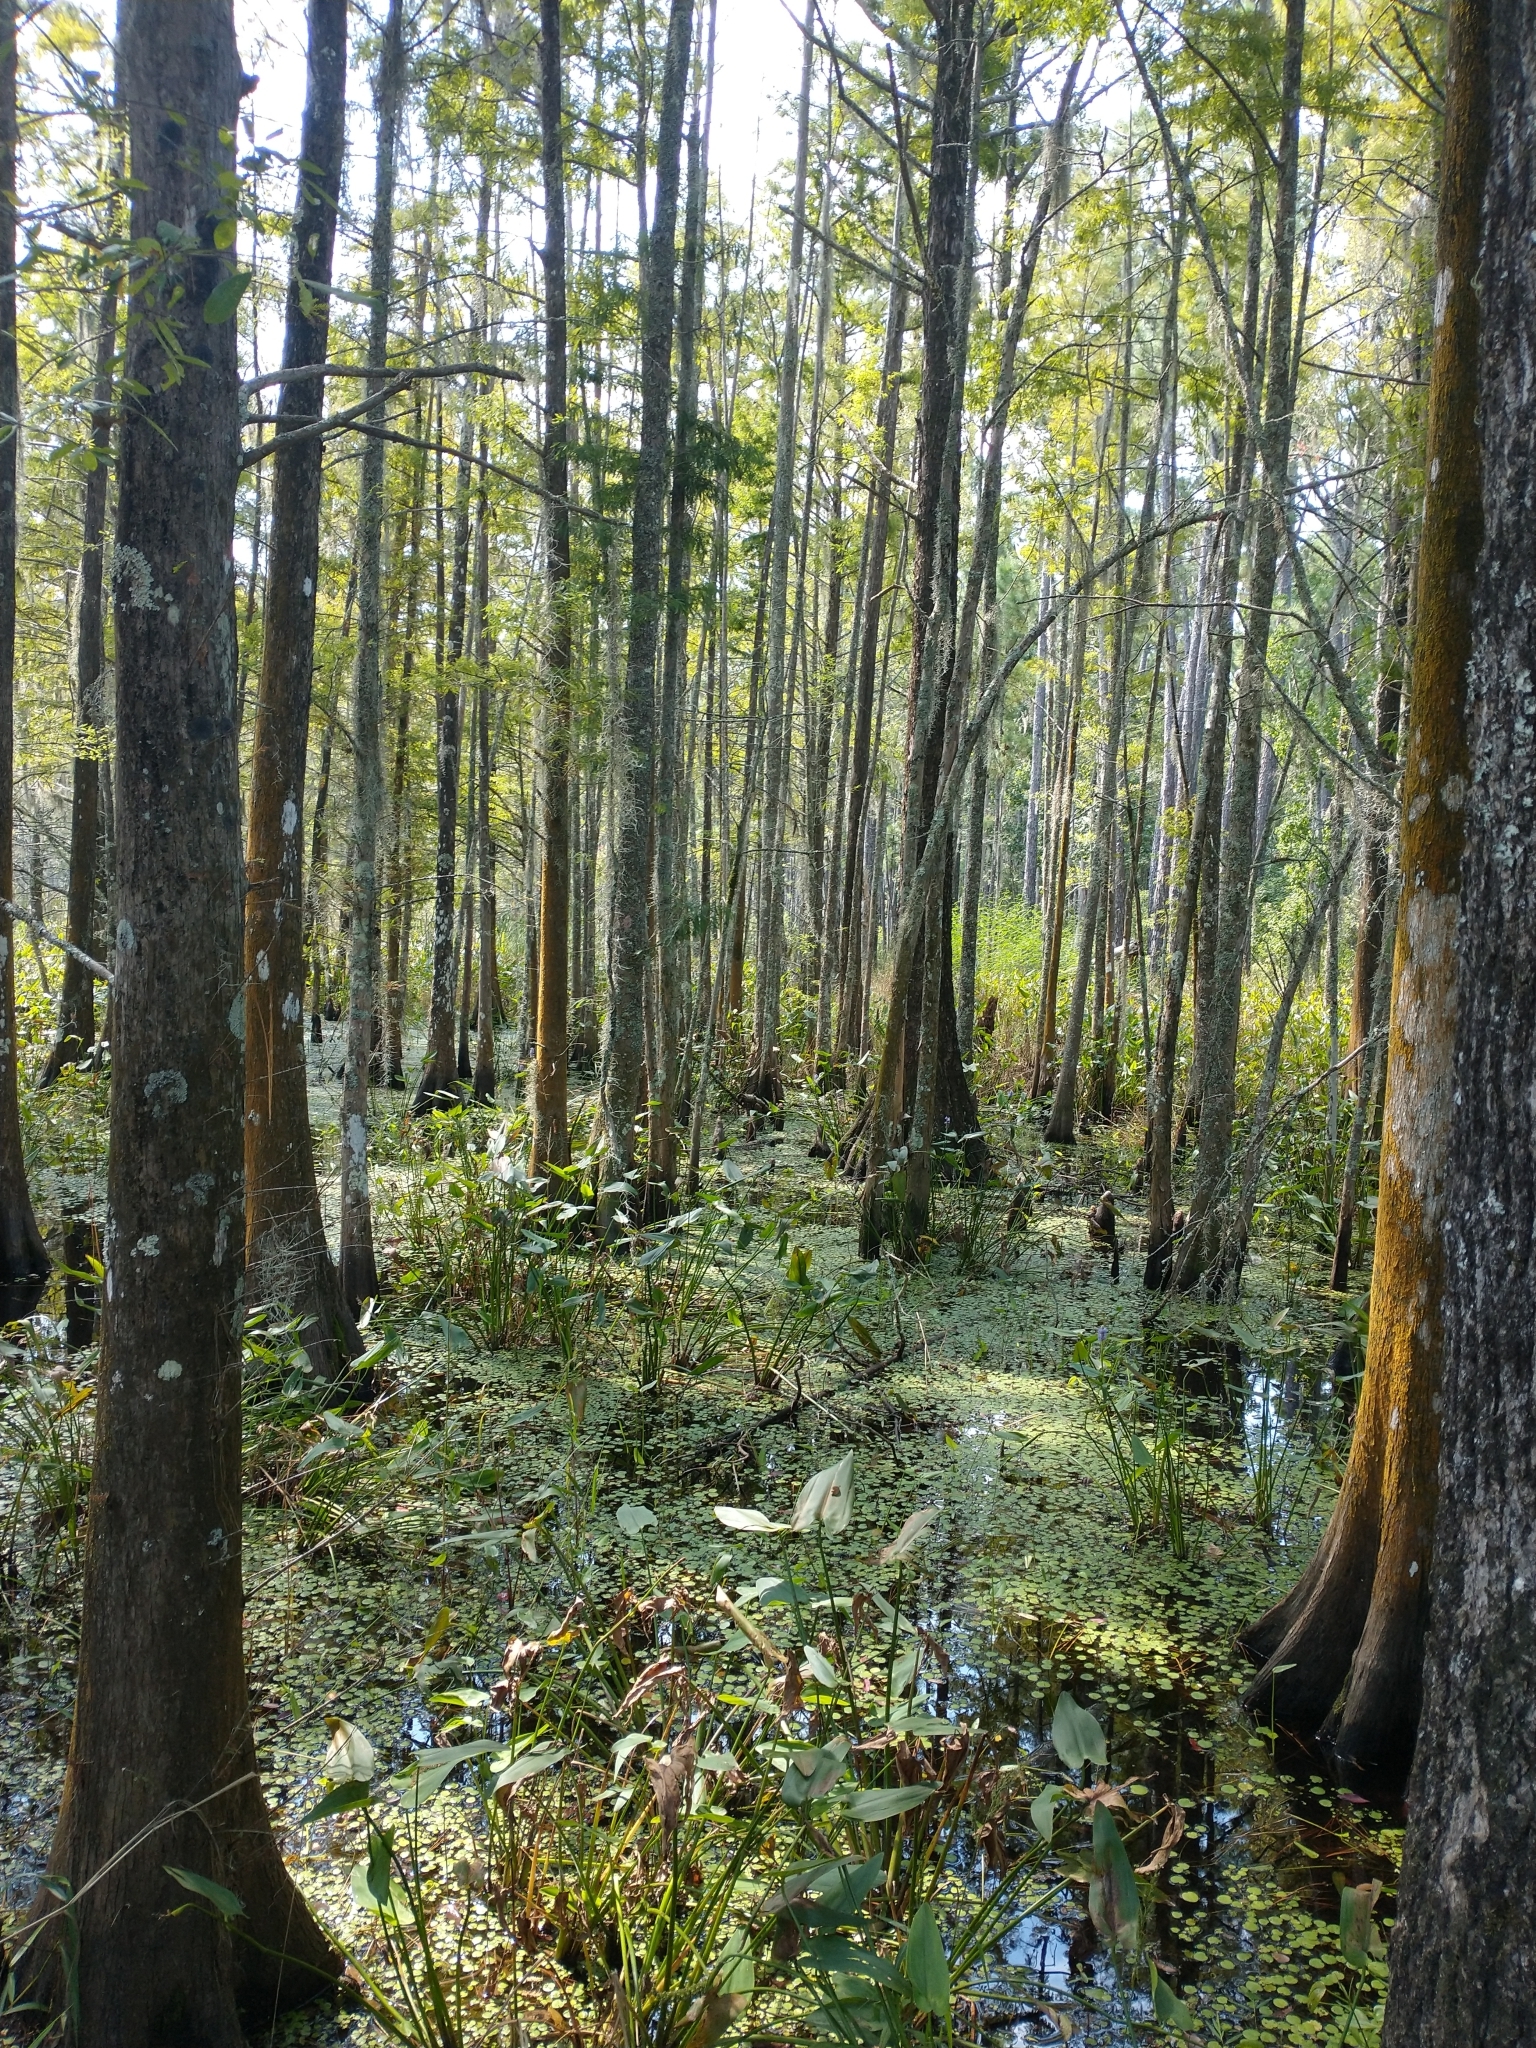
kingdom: Plantae
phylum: Tracheophyta
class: Liliopsida
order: Commelinales
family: Pontederiaceae
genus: Pontederia
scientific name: Pontederia cordata
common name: Pickerelweed
